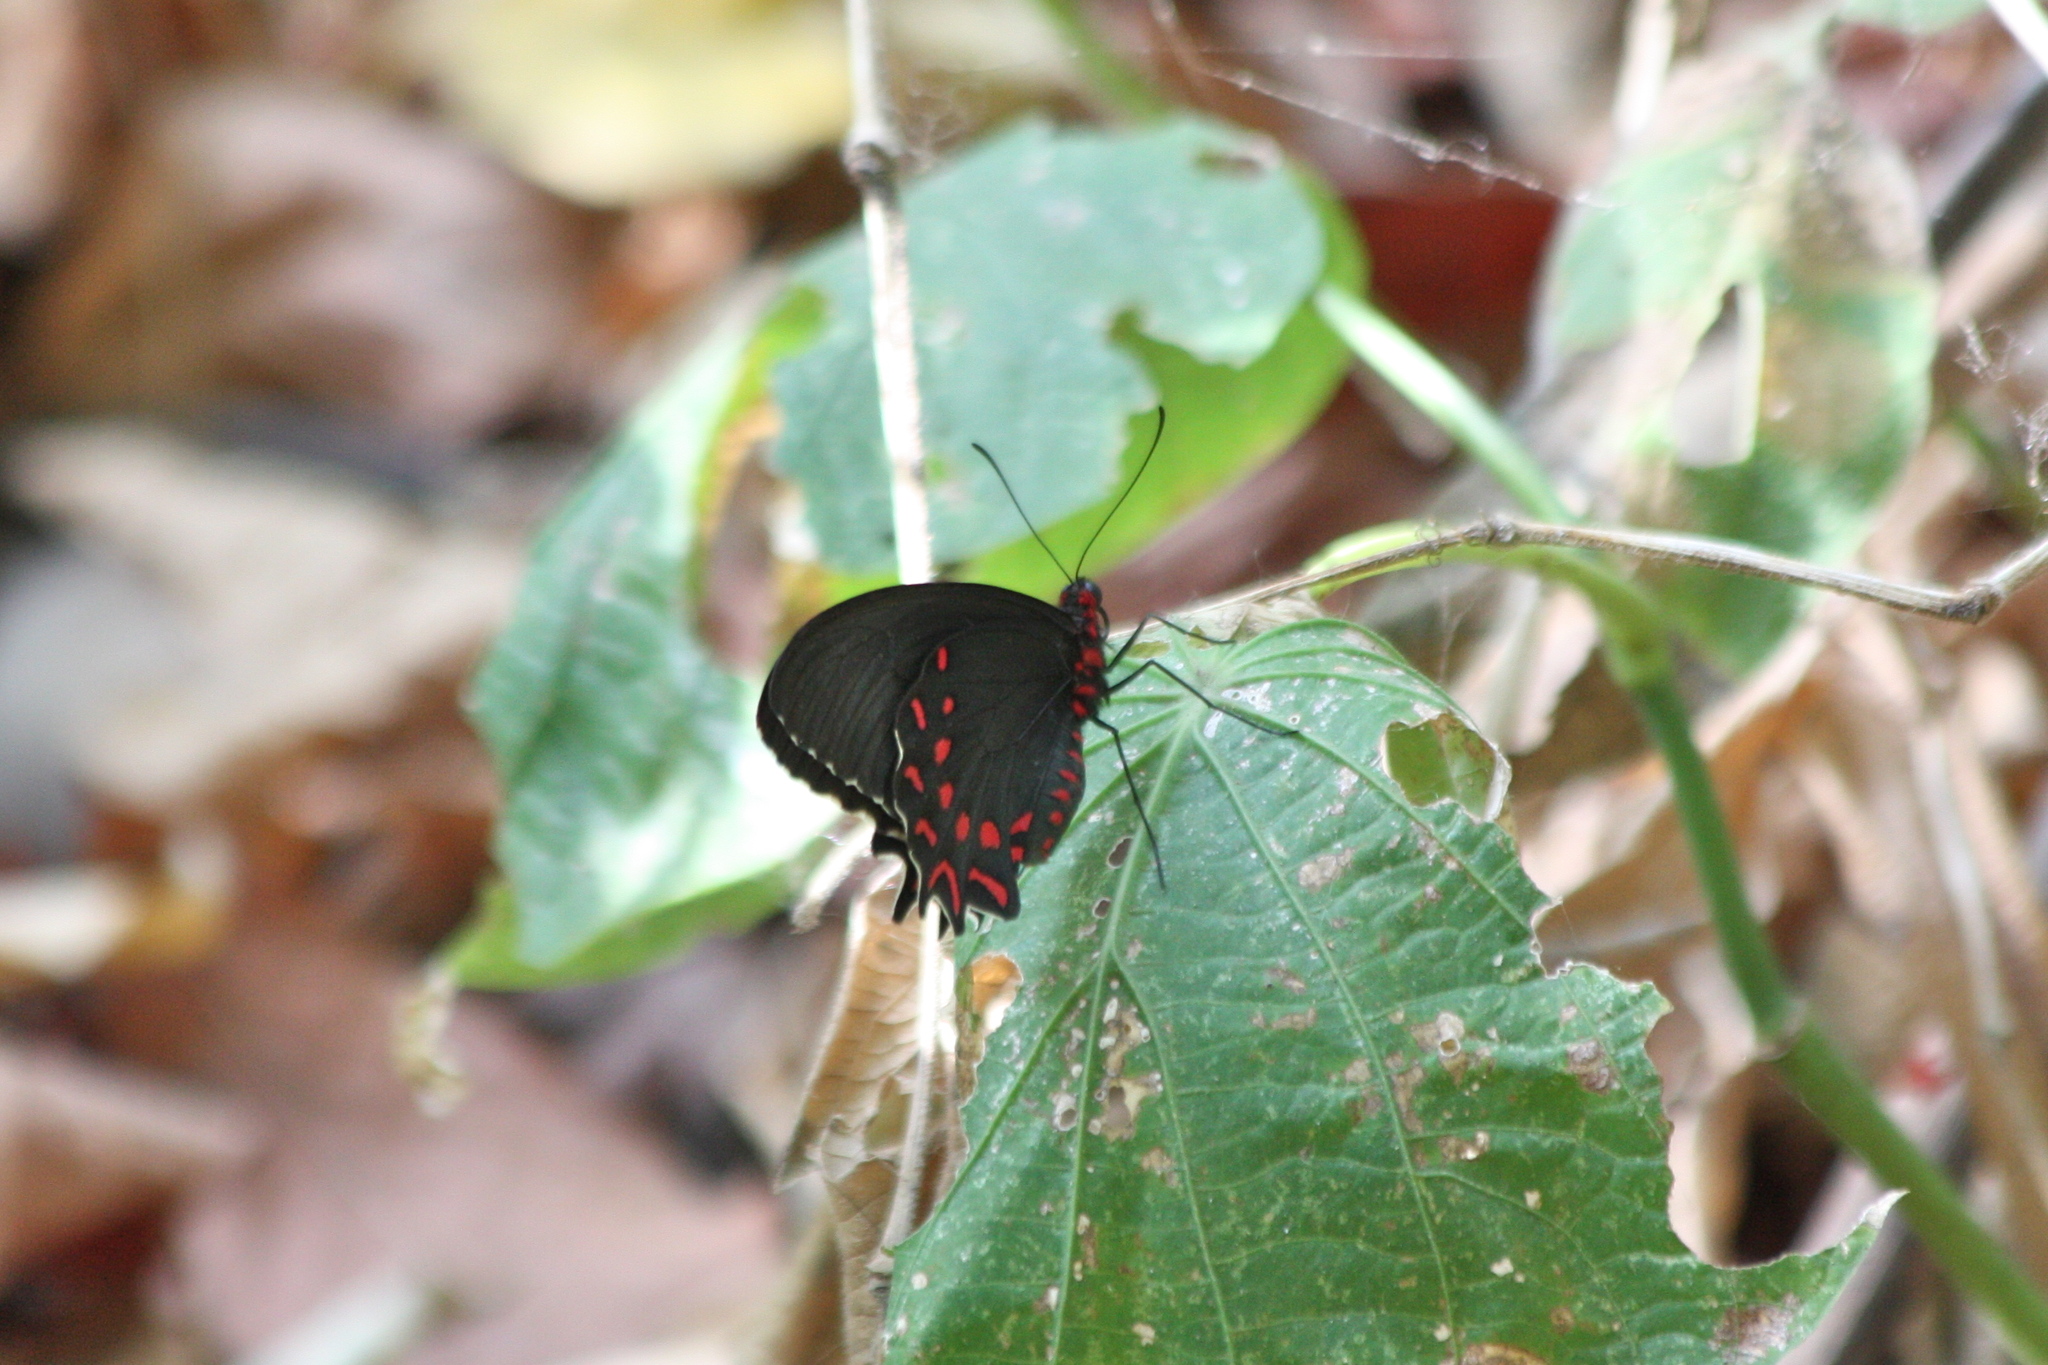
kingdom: Animalia
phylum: Arthropoda
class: Insecta
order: Lepidoptera
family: Papilionidae
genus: Parides
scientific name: Parides photinus
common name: Pink-spotted cattleheart
